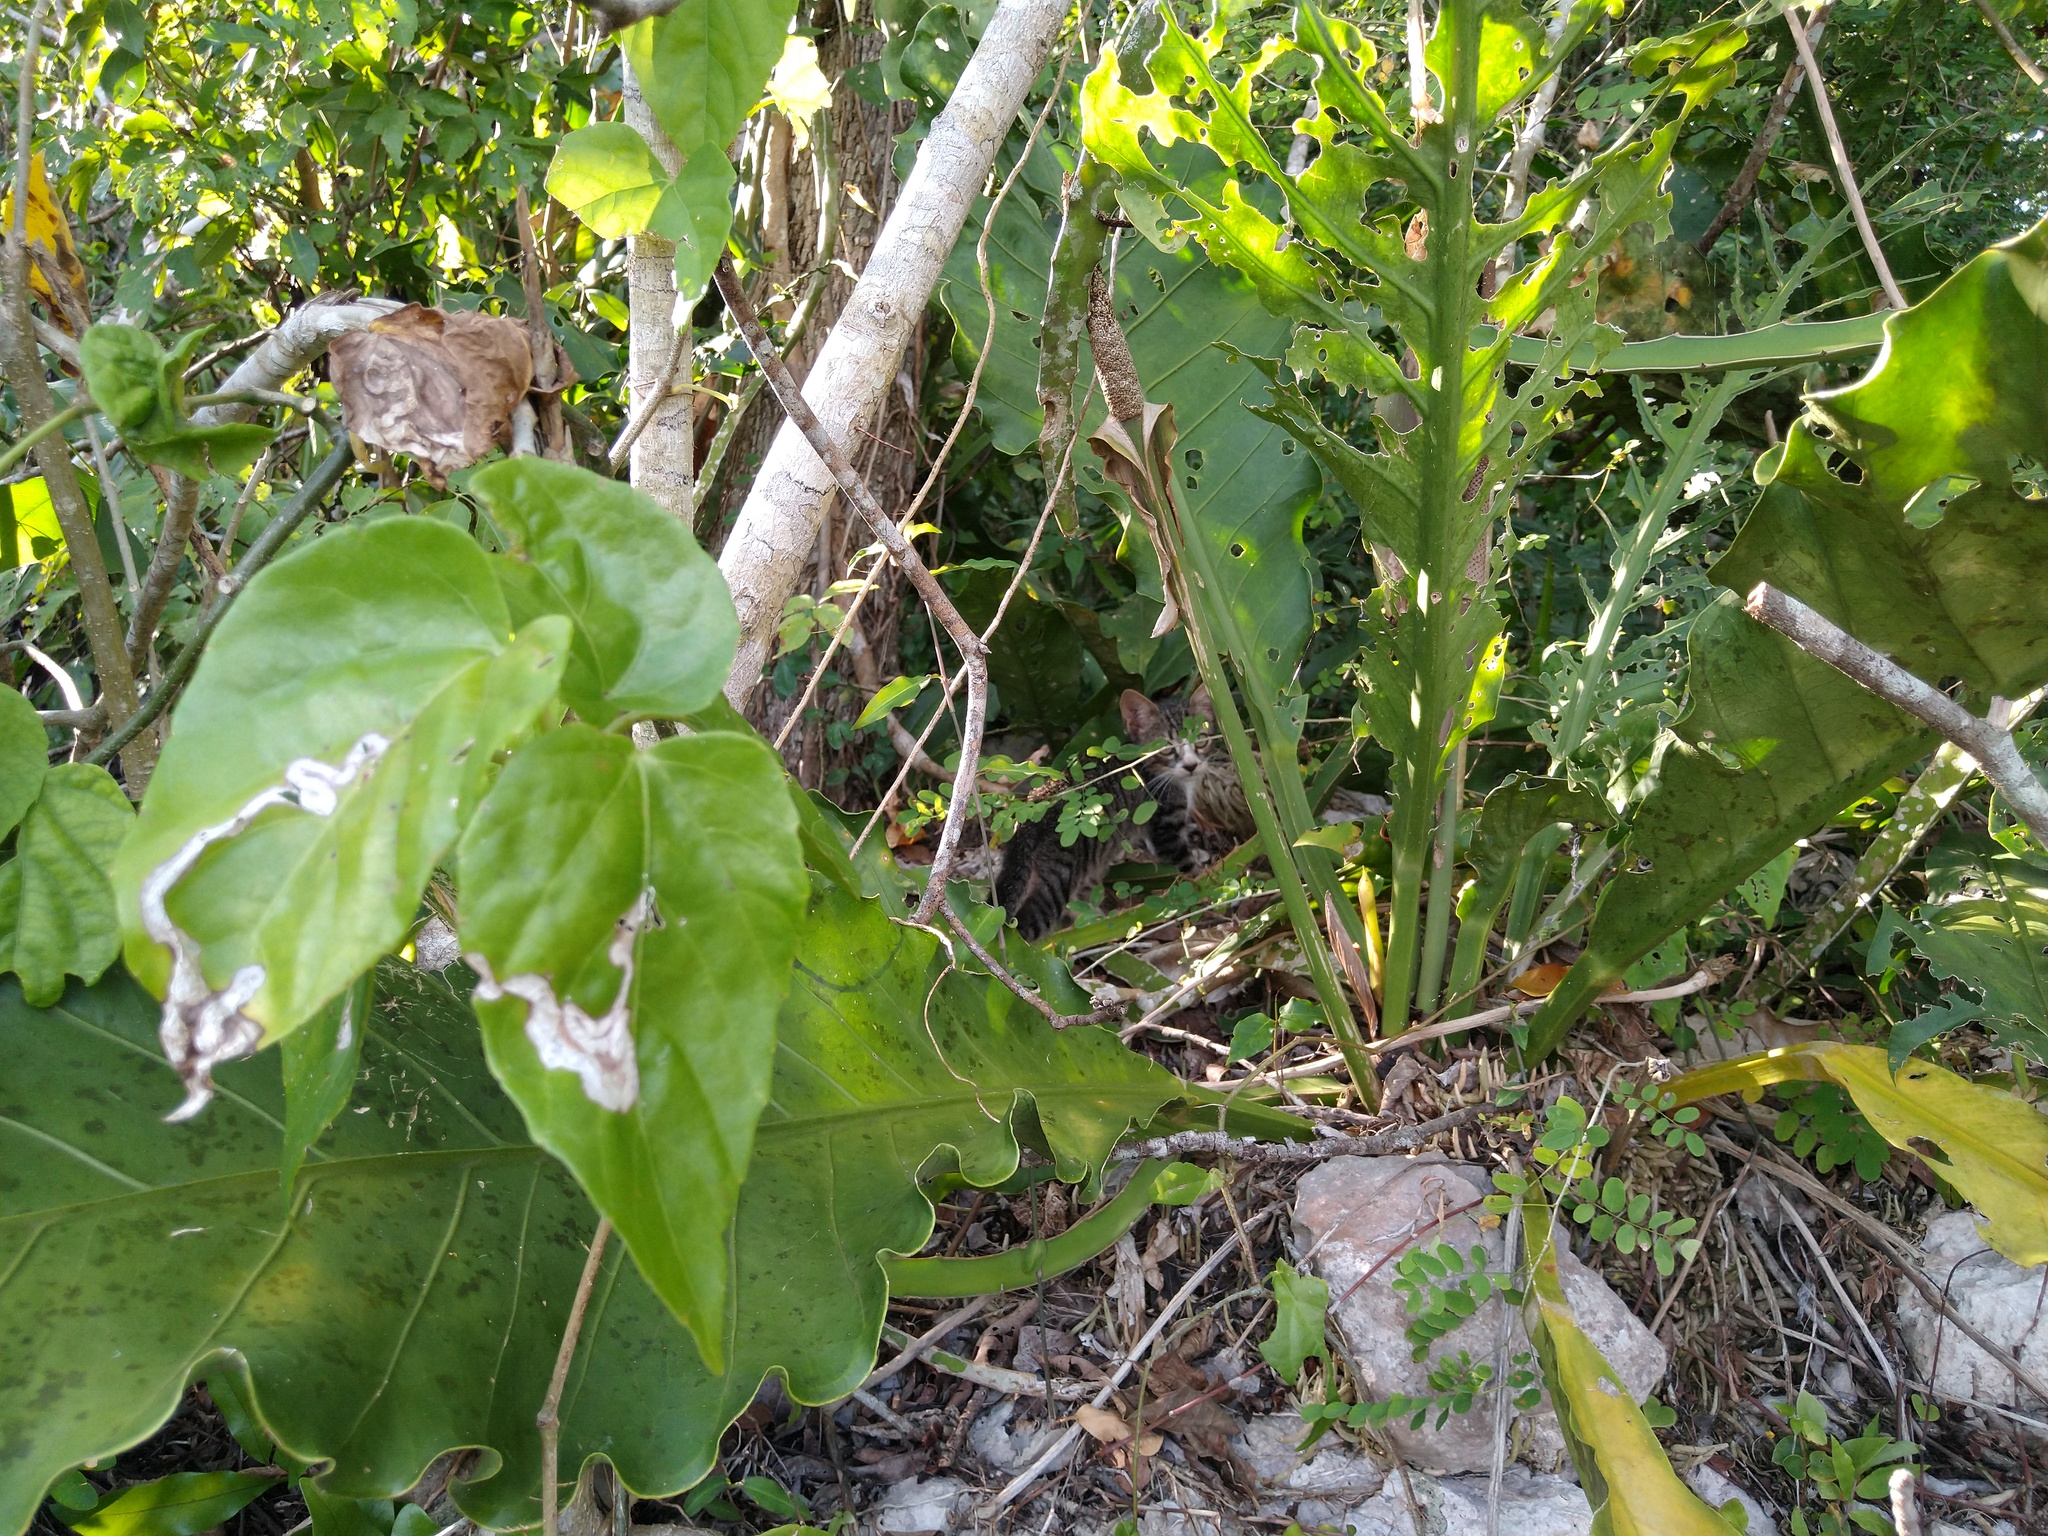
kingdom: Animalia
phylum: Chordata
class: Mammalia
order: Carnivora
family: Felidae
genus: Felis
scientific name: Felis catus
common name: Domestic cat
